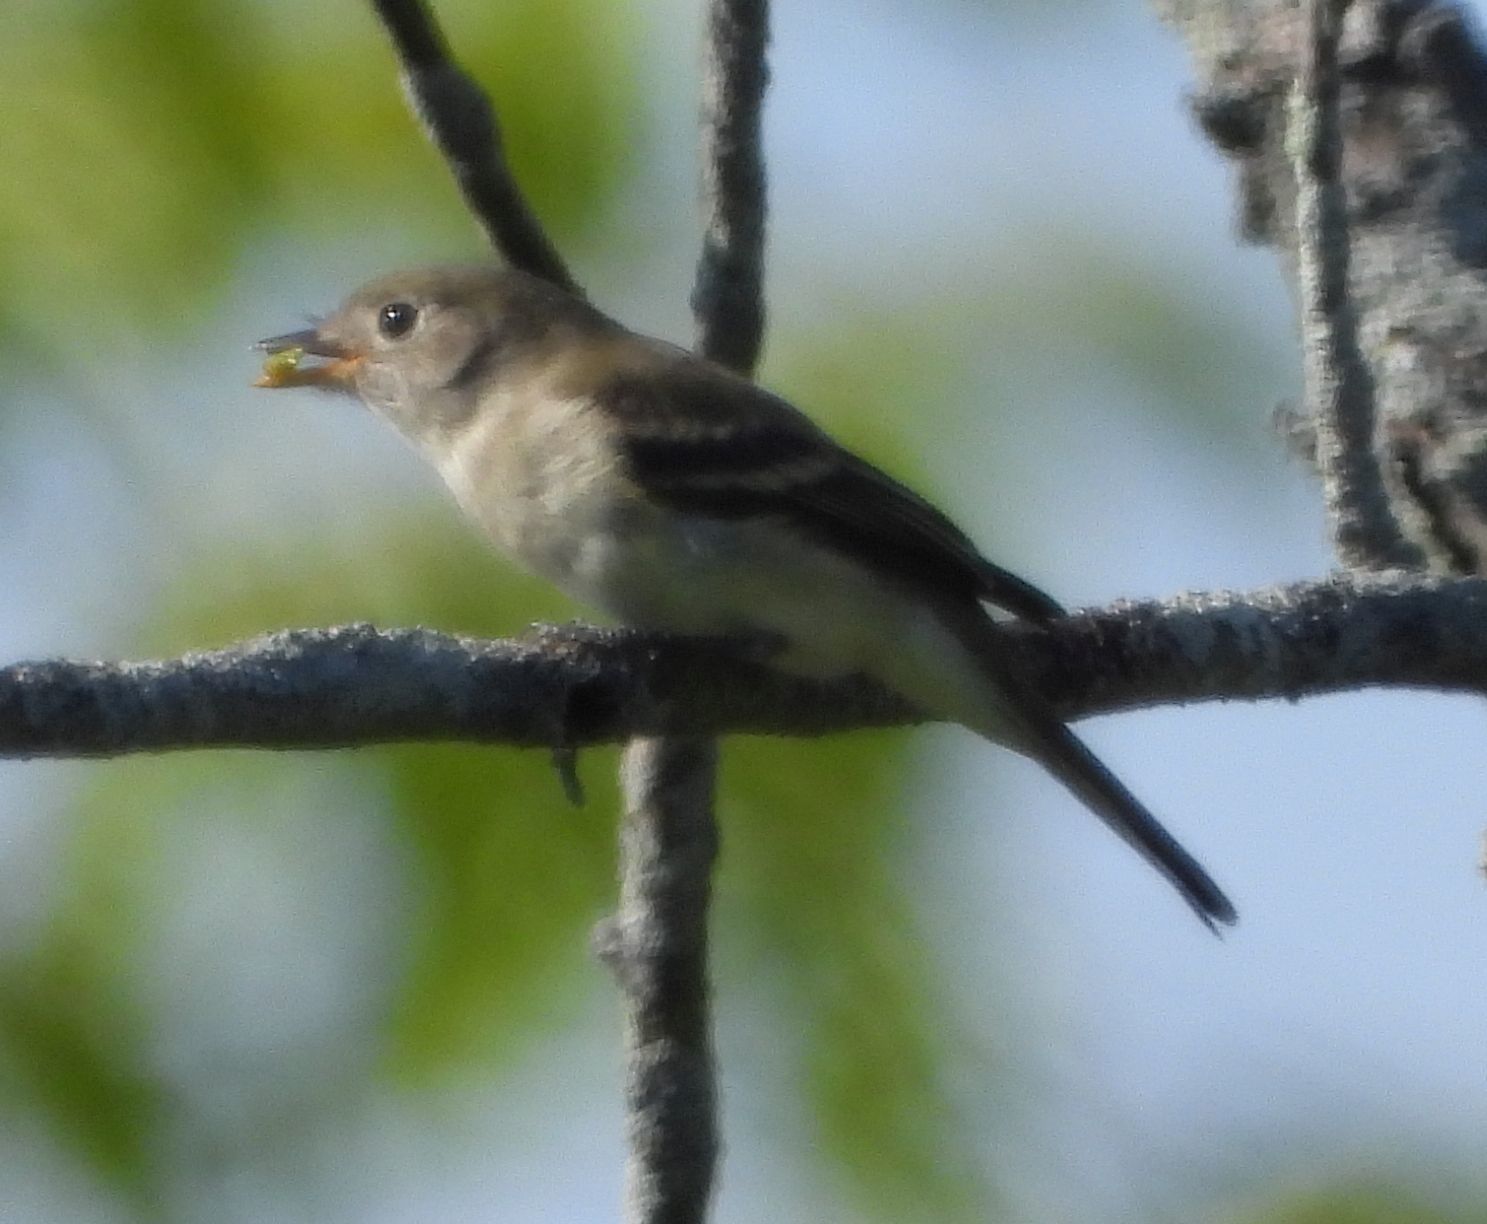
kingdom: Animalia
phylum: Chordata
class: Aves
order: Passeriformes
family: Tyrannidae
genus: Empidonax
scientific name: Empidonax minimus
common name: Least flycatcher
